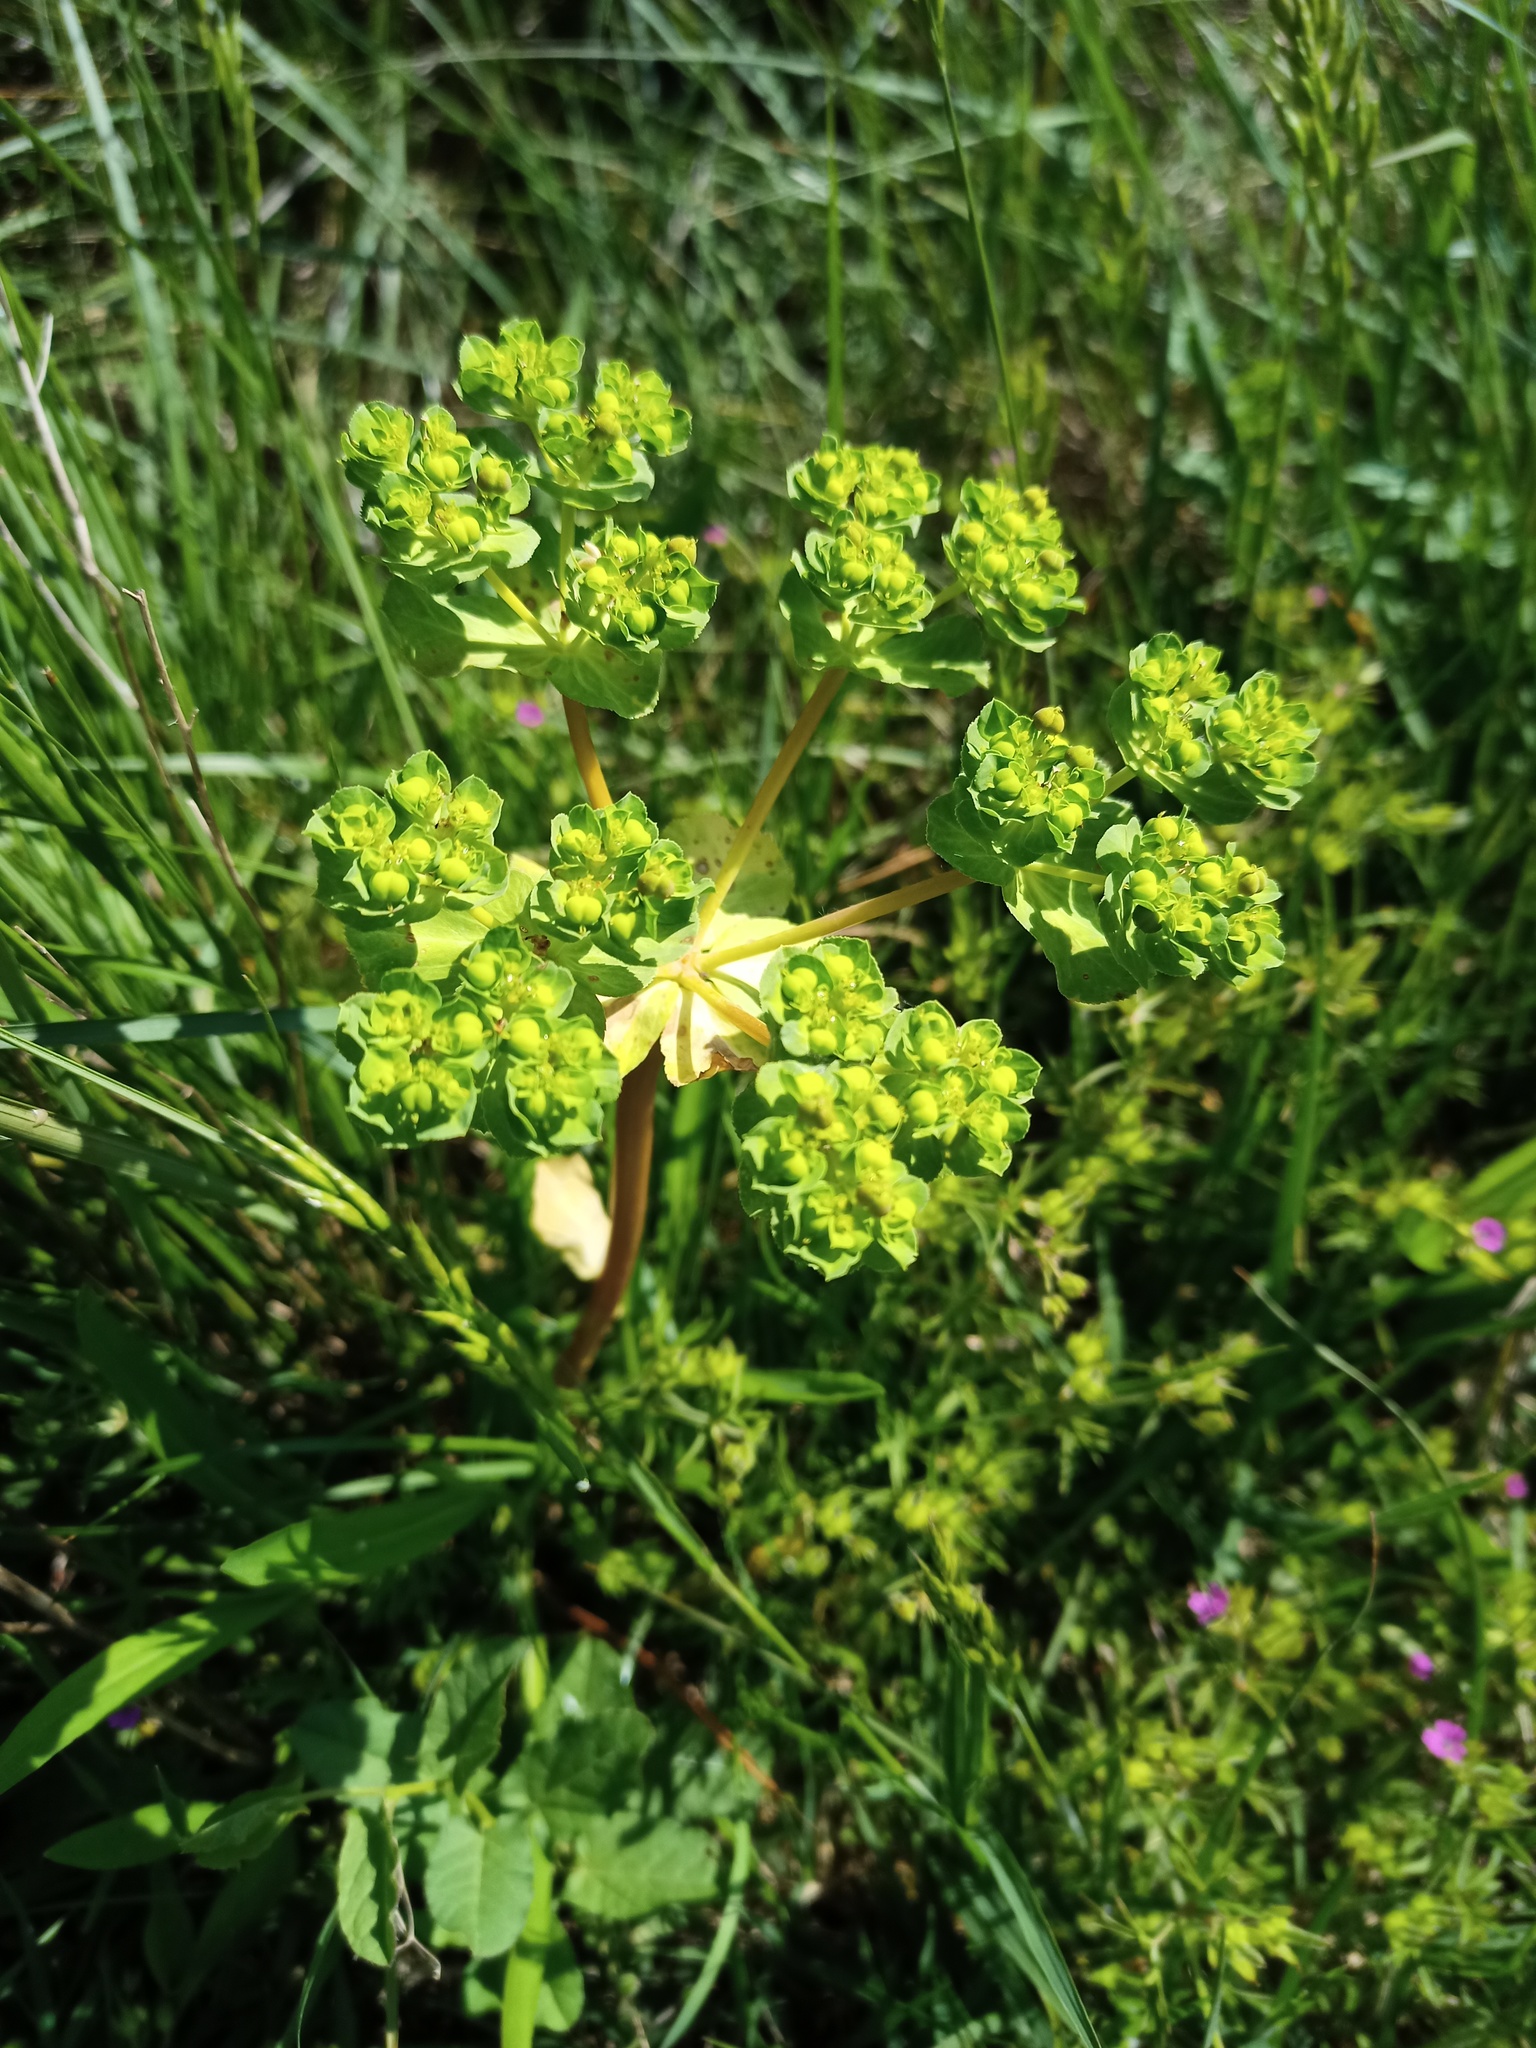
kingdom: Plantae
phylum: Tracheophyta
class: Magnoliopsida
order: Malpighiales
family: Euphorbiaceae
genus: Euphorbia
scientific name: Euphorbia helioscopia
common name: Sun spurge
